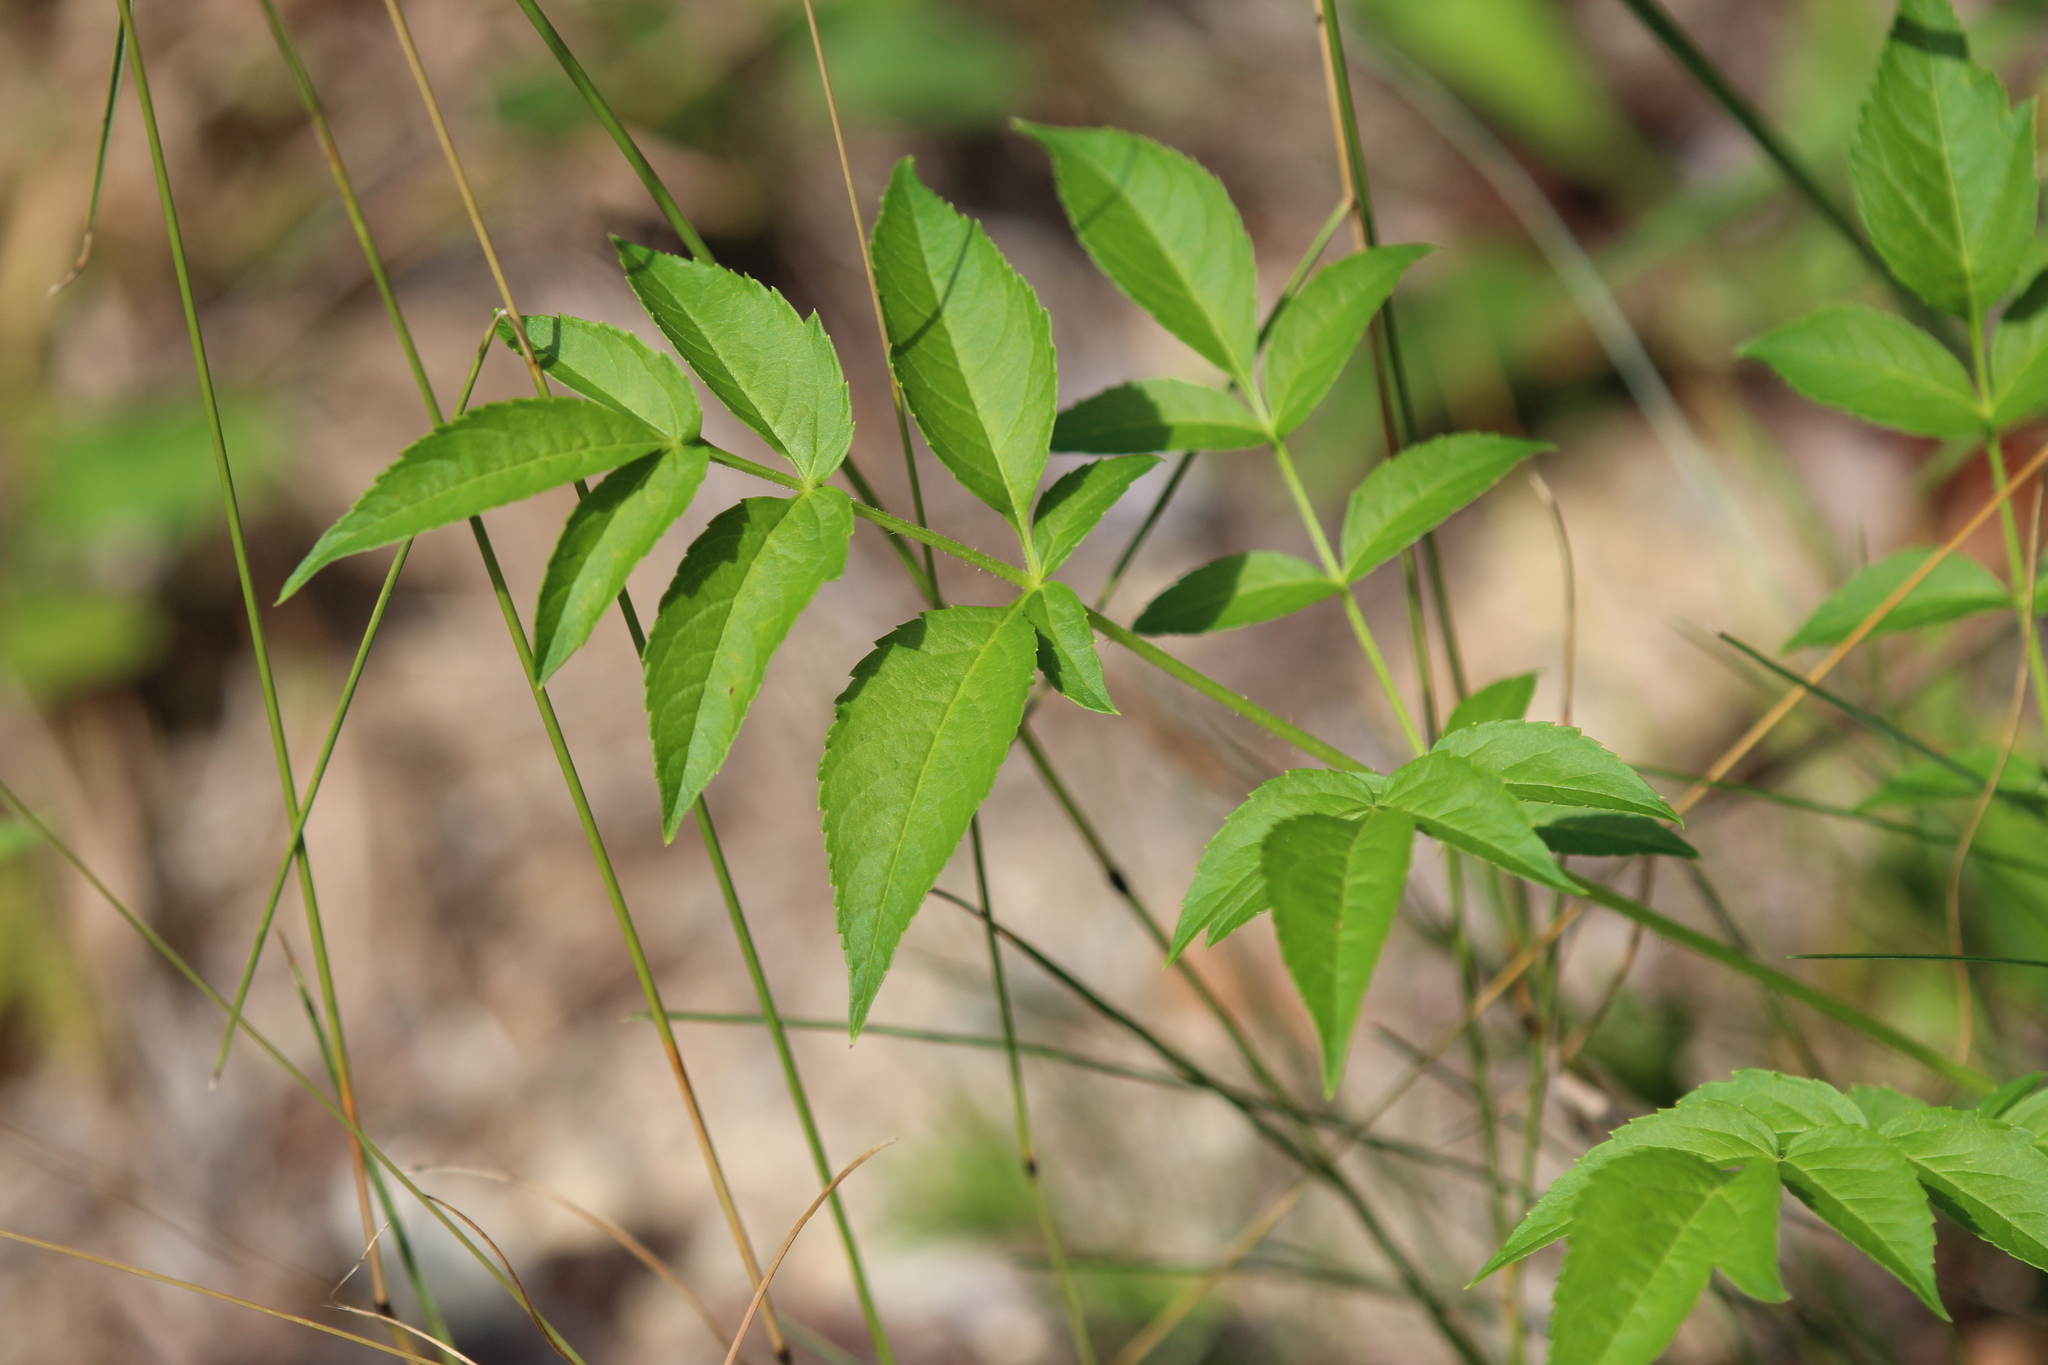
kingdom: Plantae
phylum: Tracheophyta
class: Magnoliopsida
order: Apiales
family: Araliaceae
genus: Aralia
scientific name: Aralia hispida
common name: Bristly sarsaparilla
